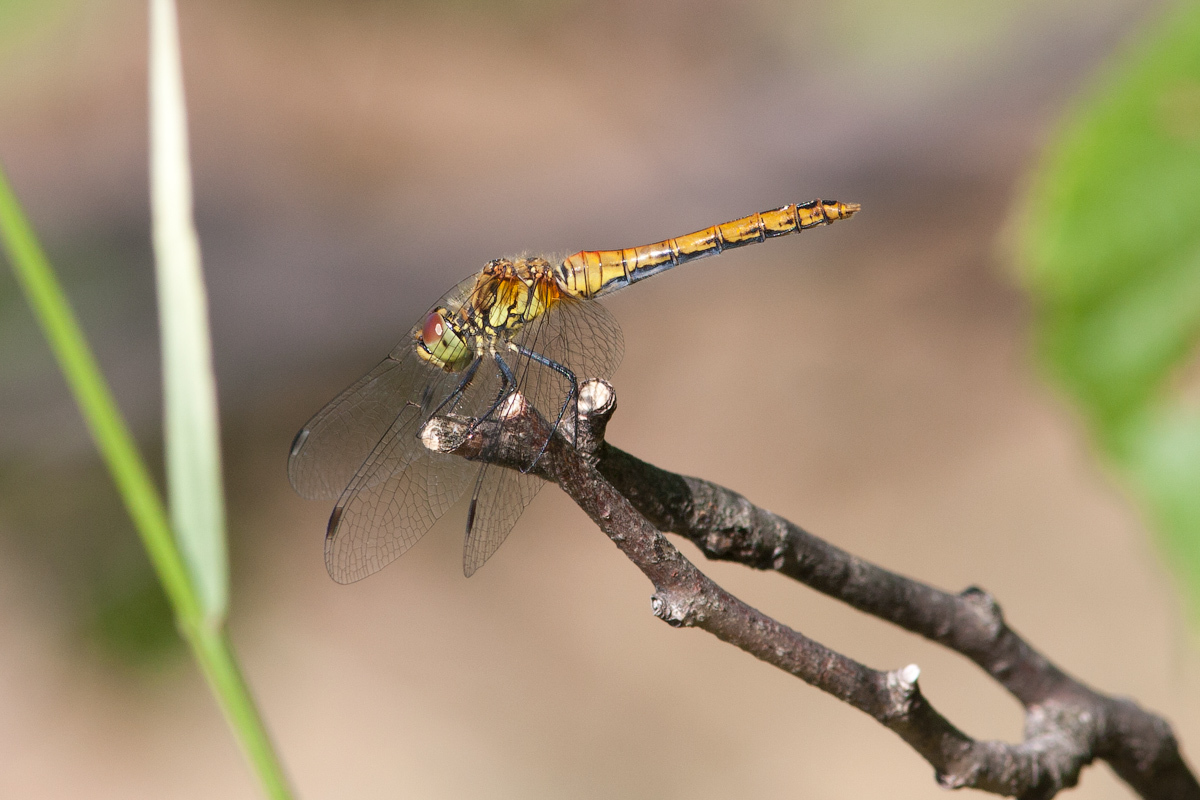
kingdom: Animalia
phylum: Arthropoda
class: Insecta
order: Odonata
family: Libellulidae
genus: Sympetrum
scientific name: Sympetrum sanguineum
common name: Ruddy darter
